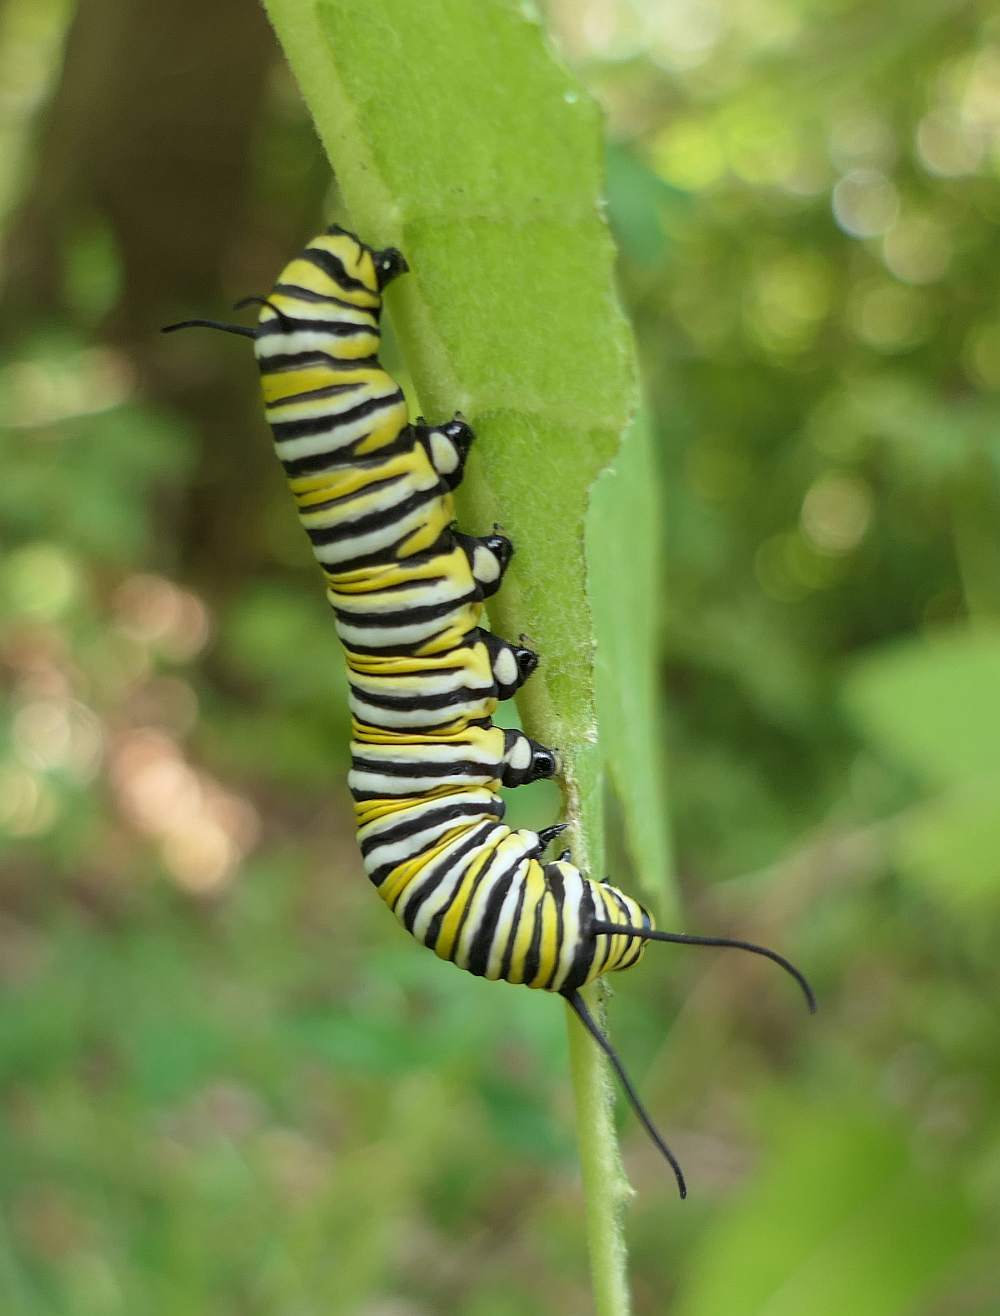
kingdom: Animalia
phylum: Arthropoda
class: Insecta
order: Lepidoptera
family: Nymphalidae
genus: Danaus
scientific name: Danaus plexippus
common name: Monarch
